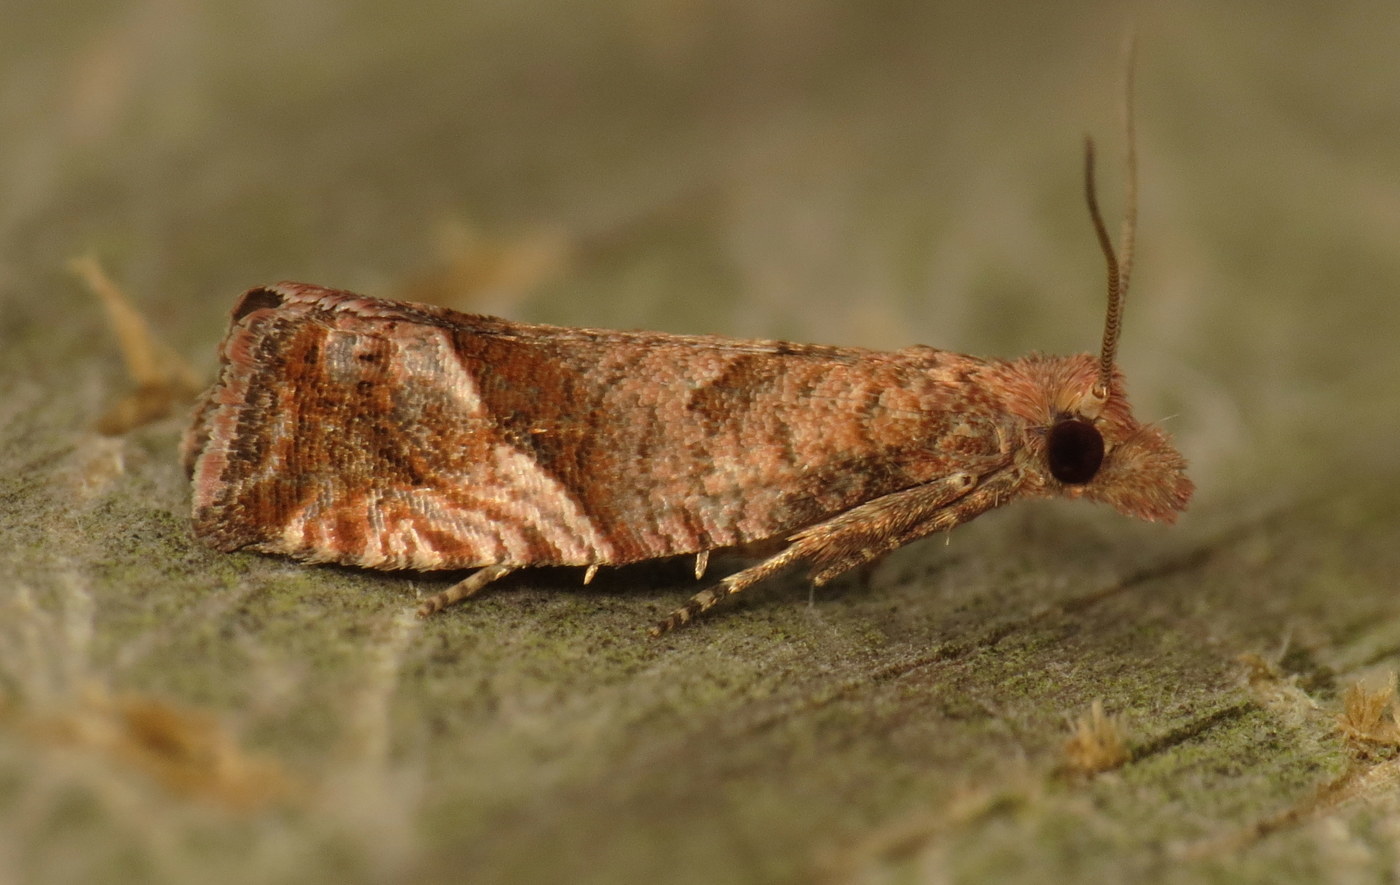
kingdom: Animalia
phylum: Arthropoda
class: Insecta
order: Lepidoptera
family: Tortricidae
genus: Pelochrista
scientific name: Pelochrista derelicta
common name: Derelict pelochrista moth
